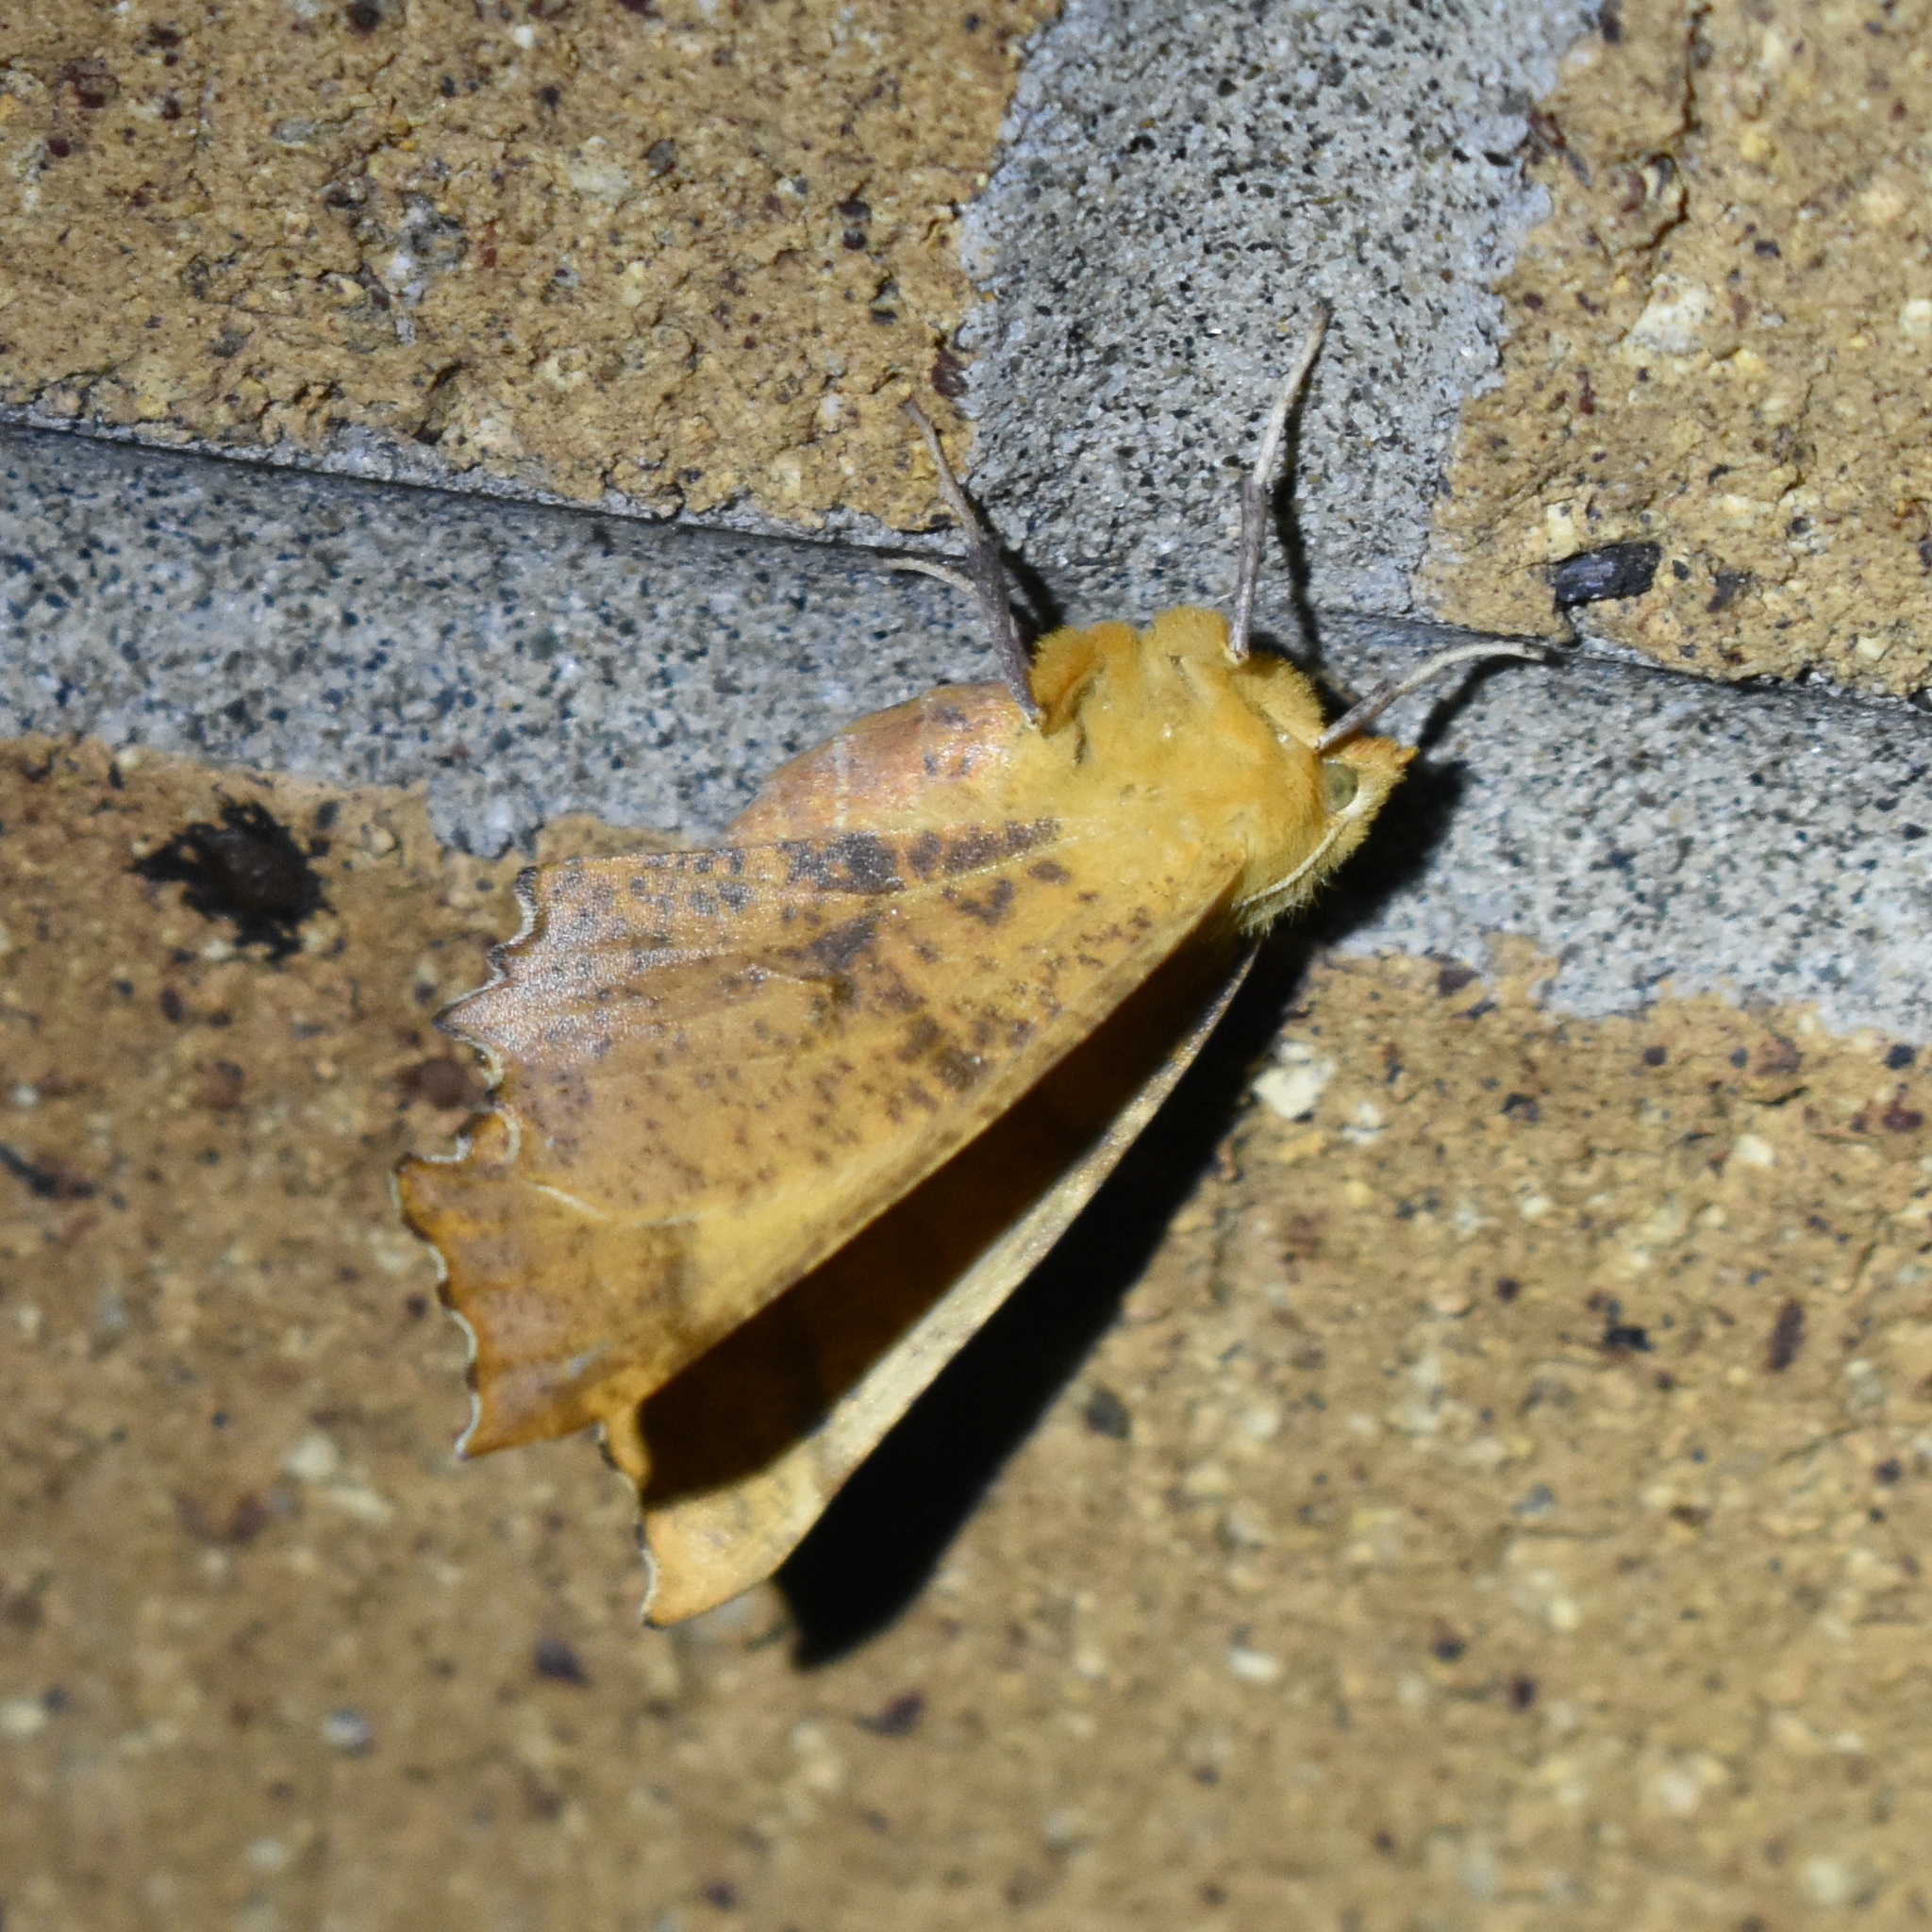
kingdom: Animalia
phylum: Arthropoda
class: Insecta
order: Lepidoptera
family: Geometridae
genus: Ennomos
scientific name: Ennomos magnaria
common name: Maple spanworm
